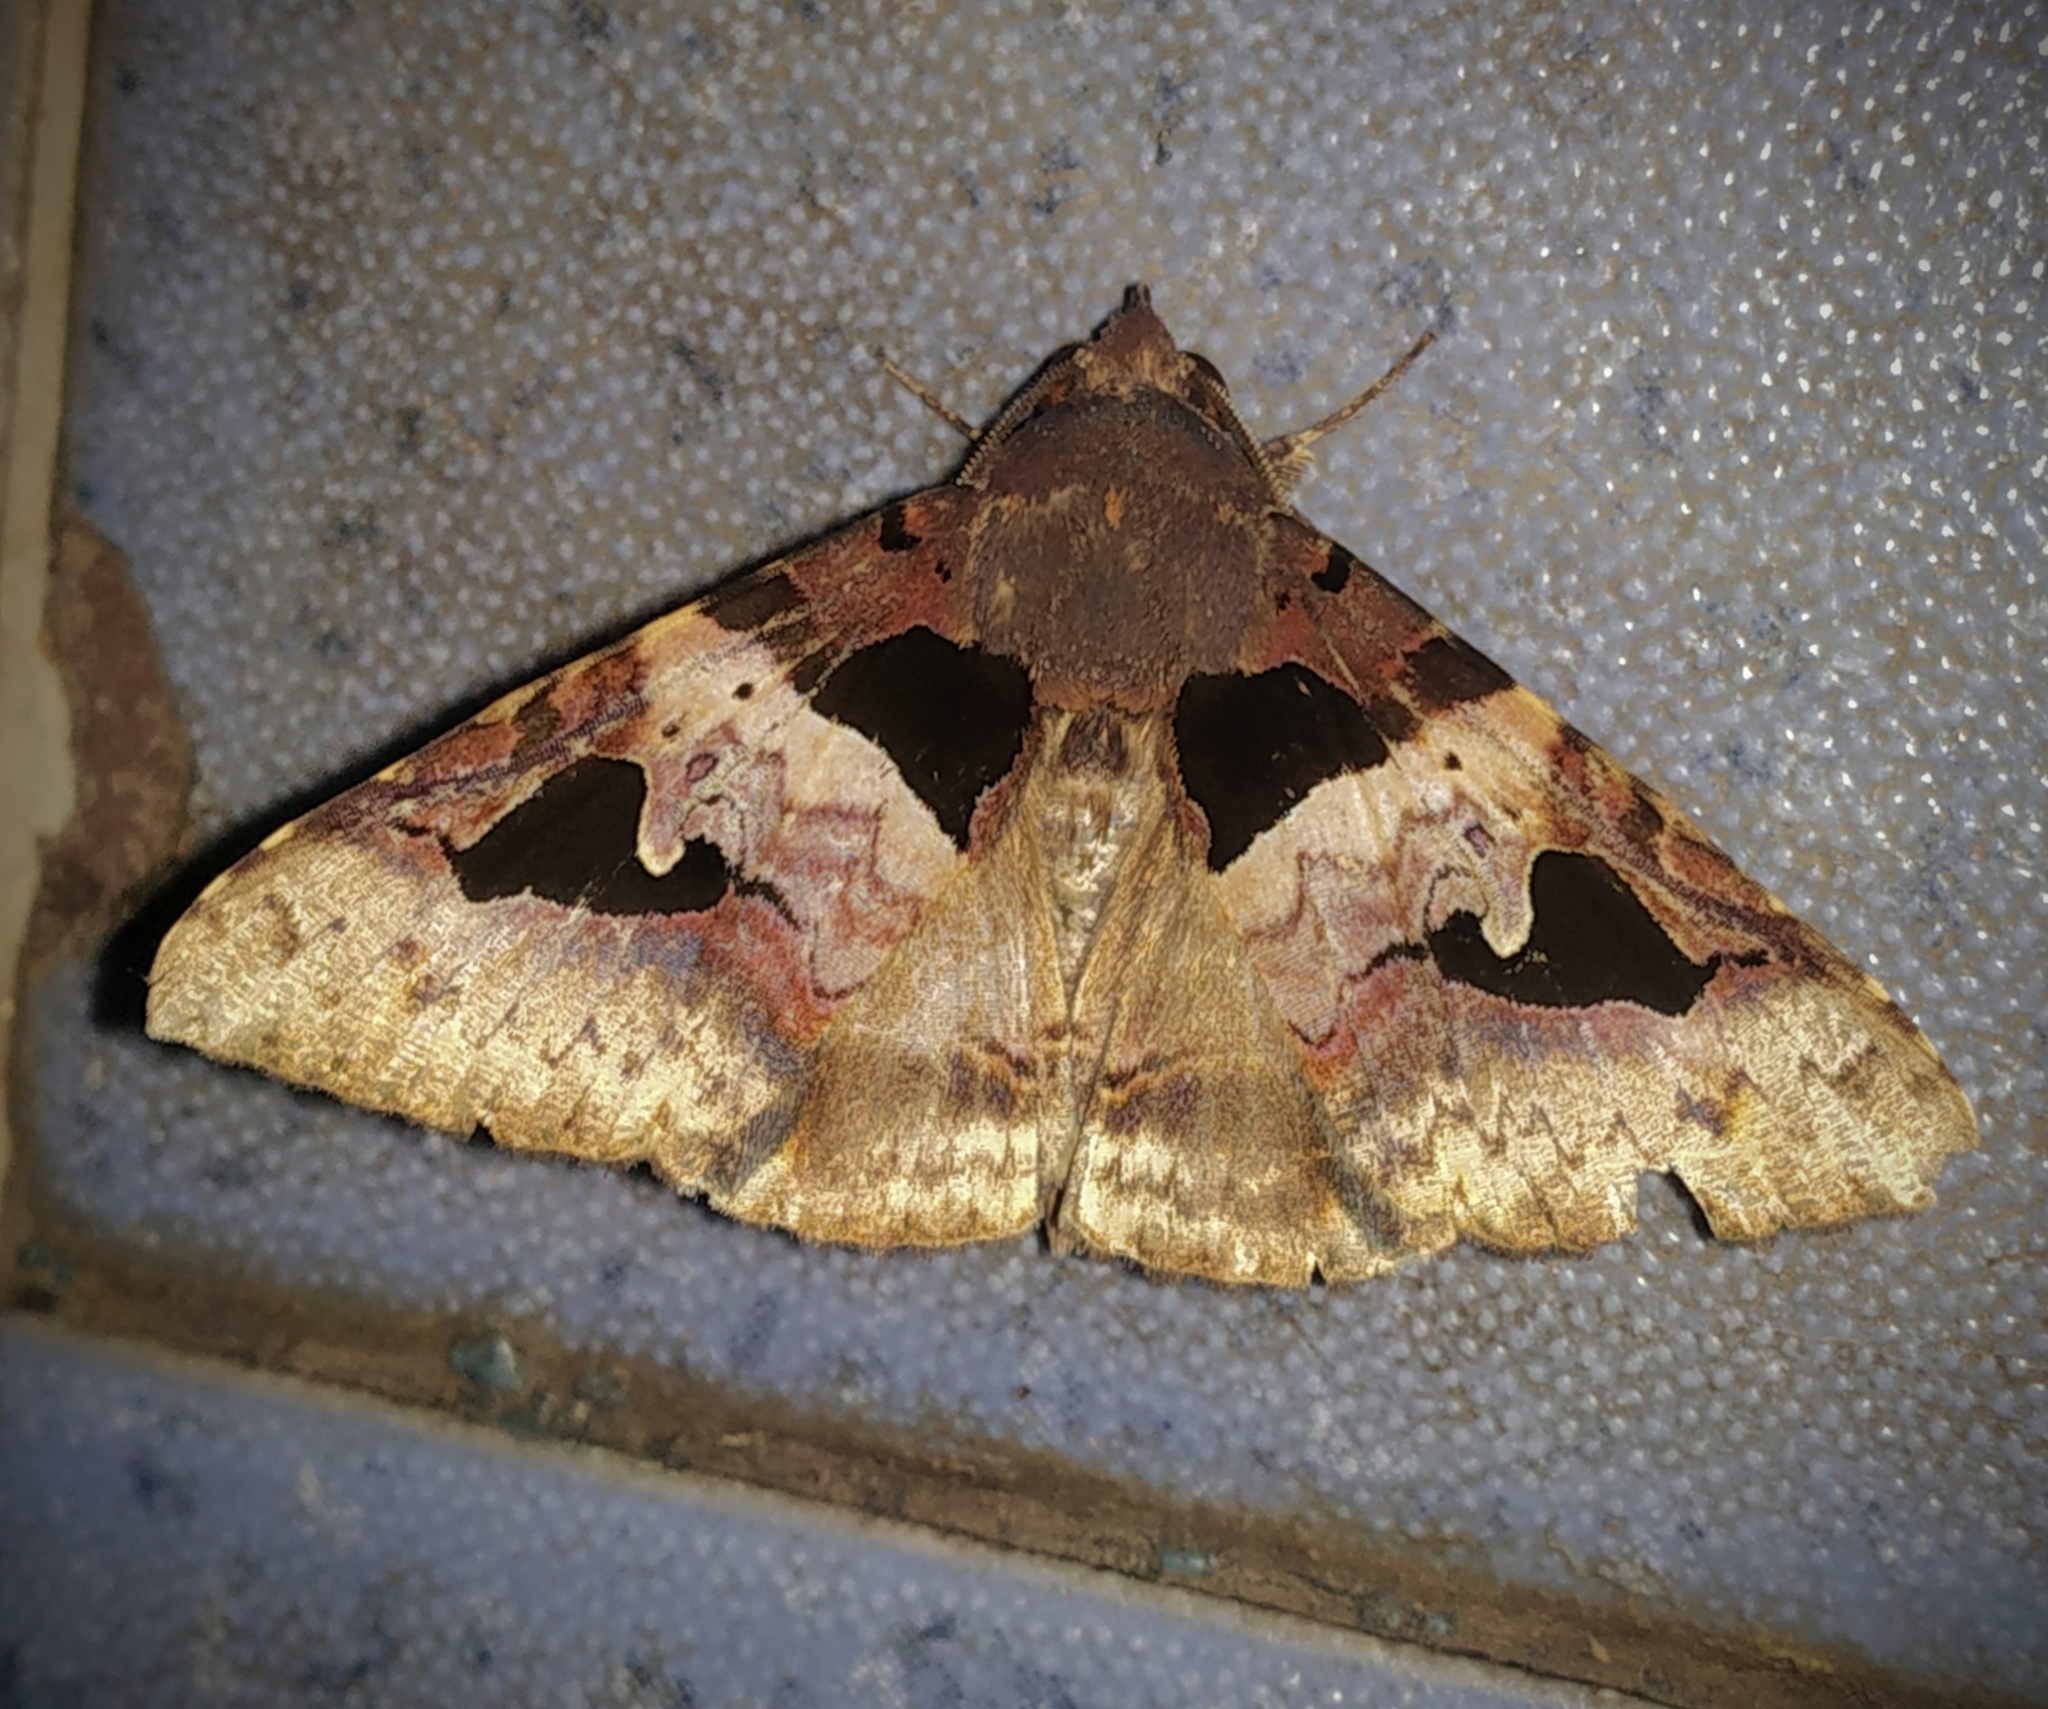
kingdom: Animalia
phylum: Arthropoda
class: Insecta
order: Lepidoptera
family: Erebidae
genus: Avatha
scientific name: Avatha bubo
